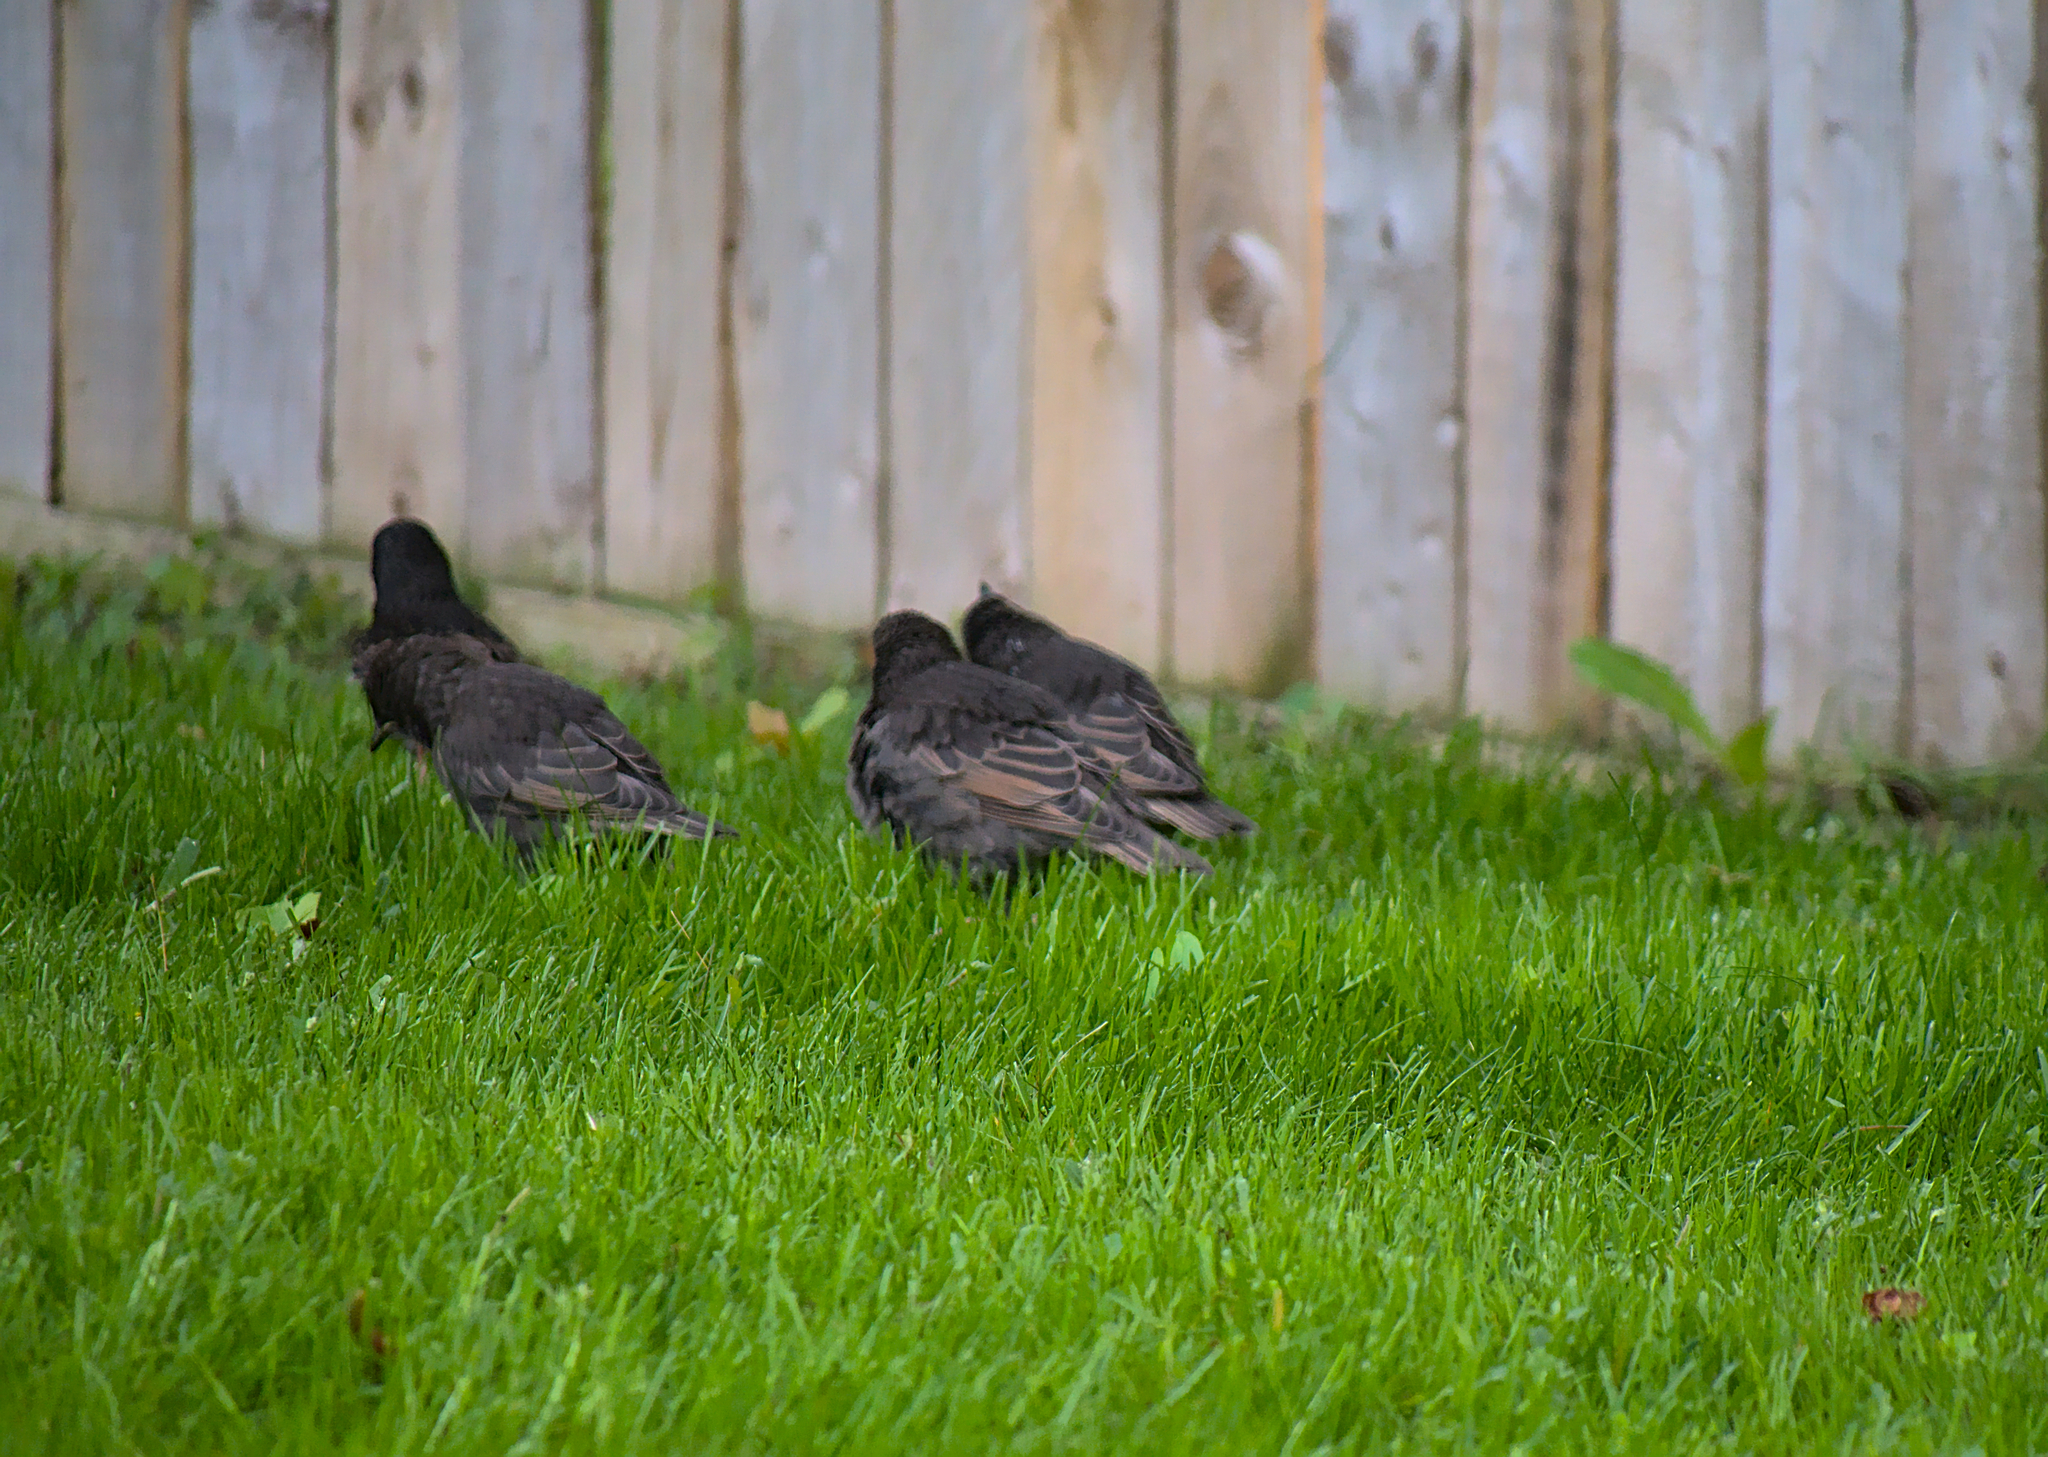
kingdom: Animalia
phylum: Chordata
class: Aves
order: Passeriformes
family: Sturnidae
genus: Sturnus
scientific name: Sturnus vulgaris
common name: Common starling
